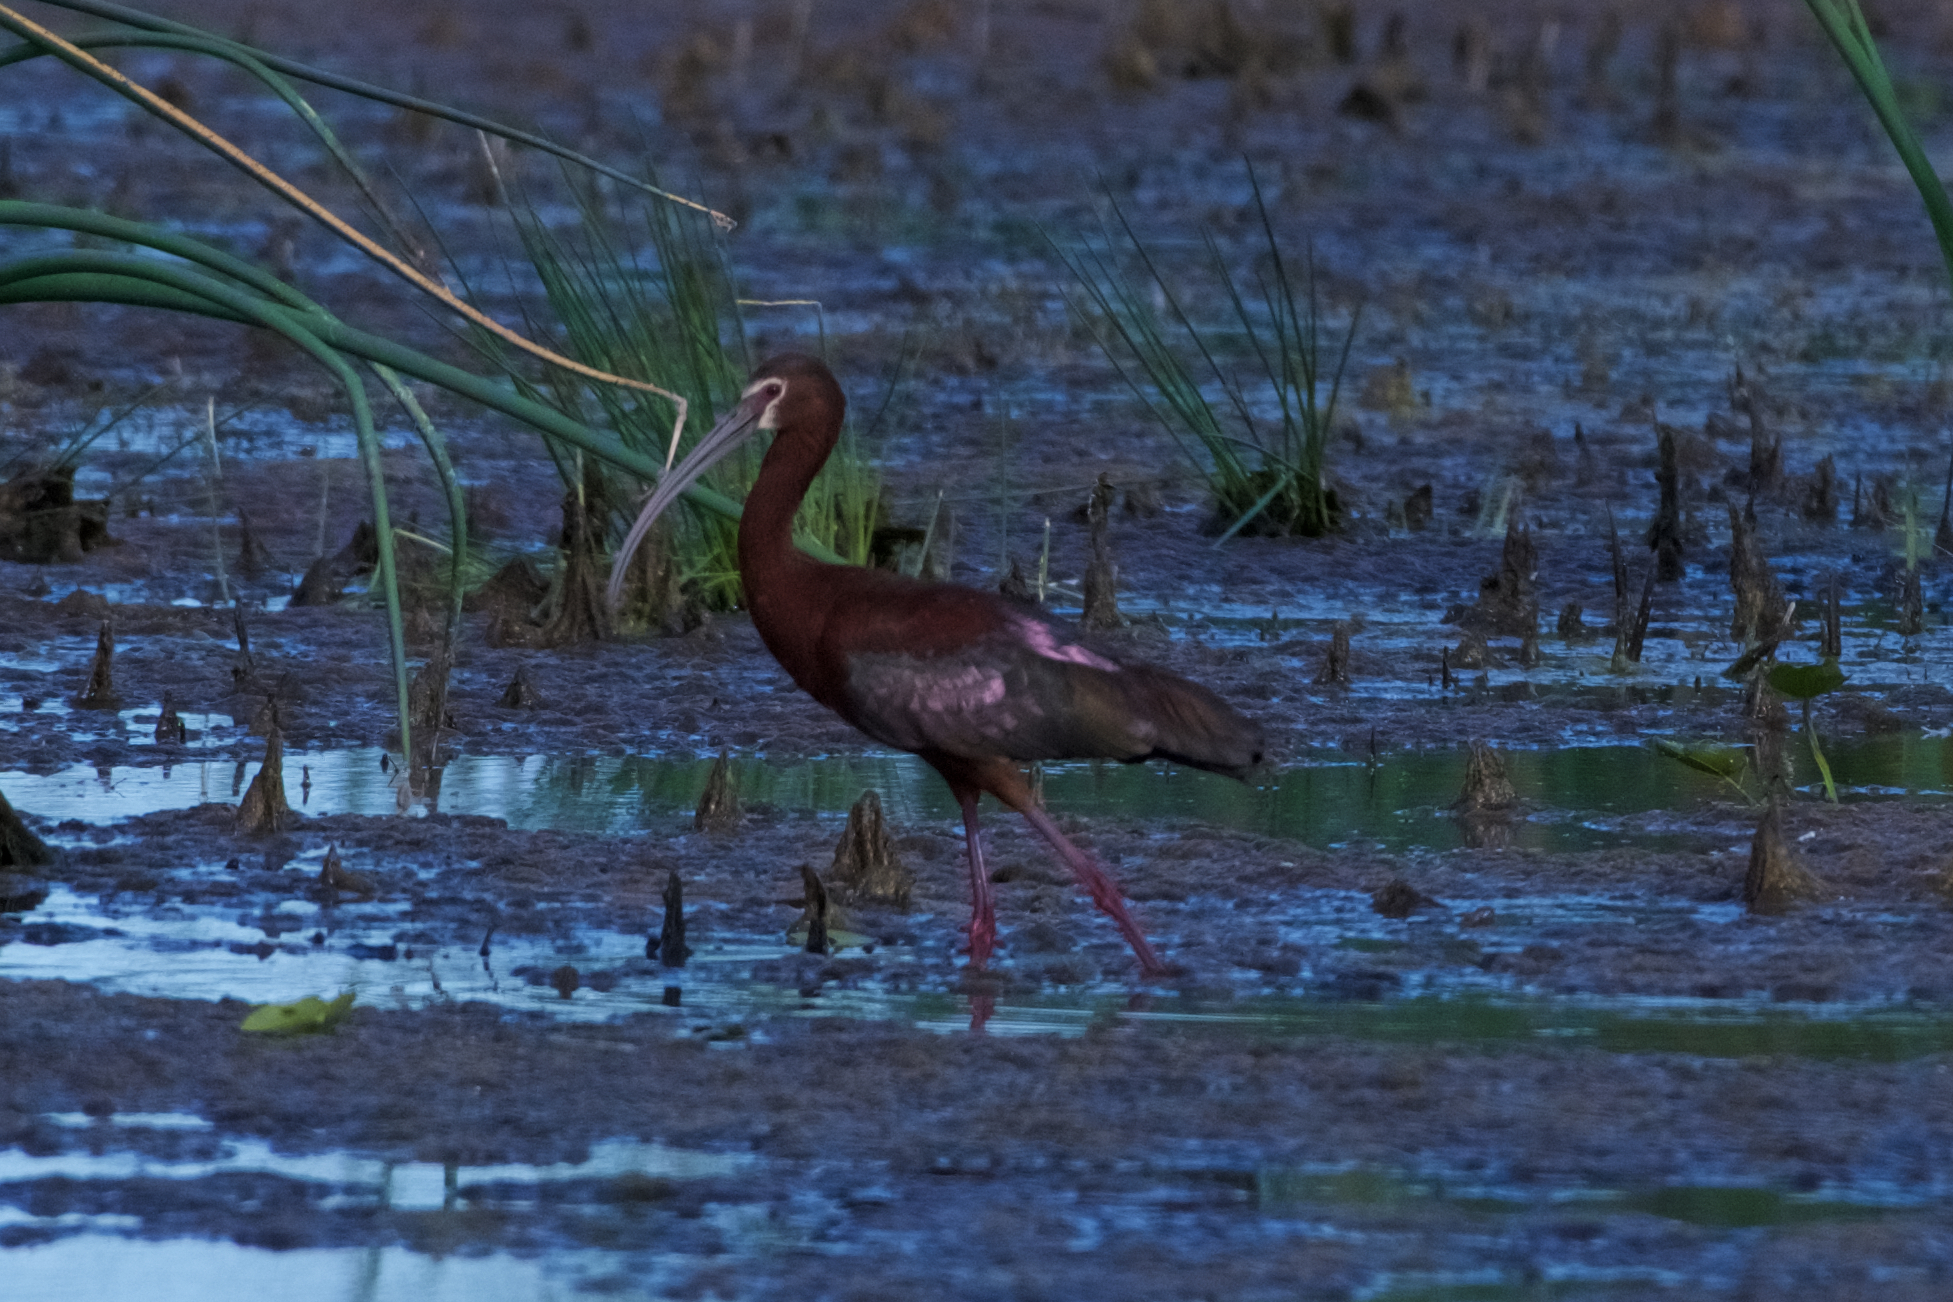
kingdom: Animalia
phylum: Chordata
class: Aves
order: Pelecaniformes
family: Threskiornithidae
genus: Plegadis
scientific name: Plegadis chihi
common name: White-faced ibis
